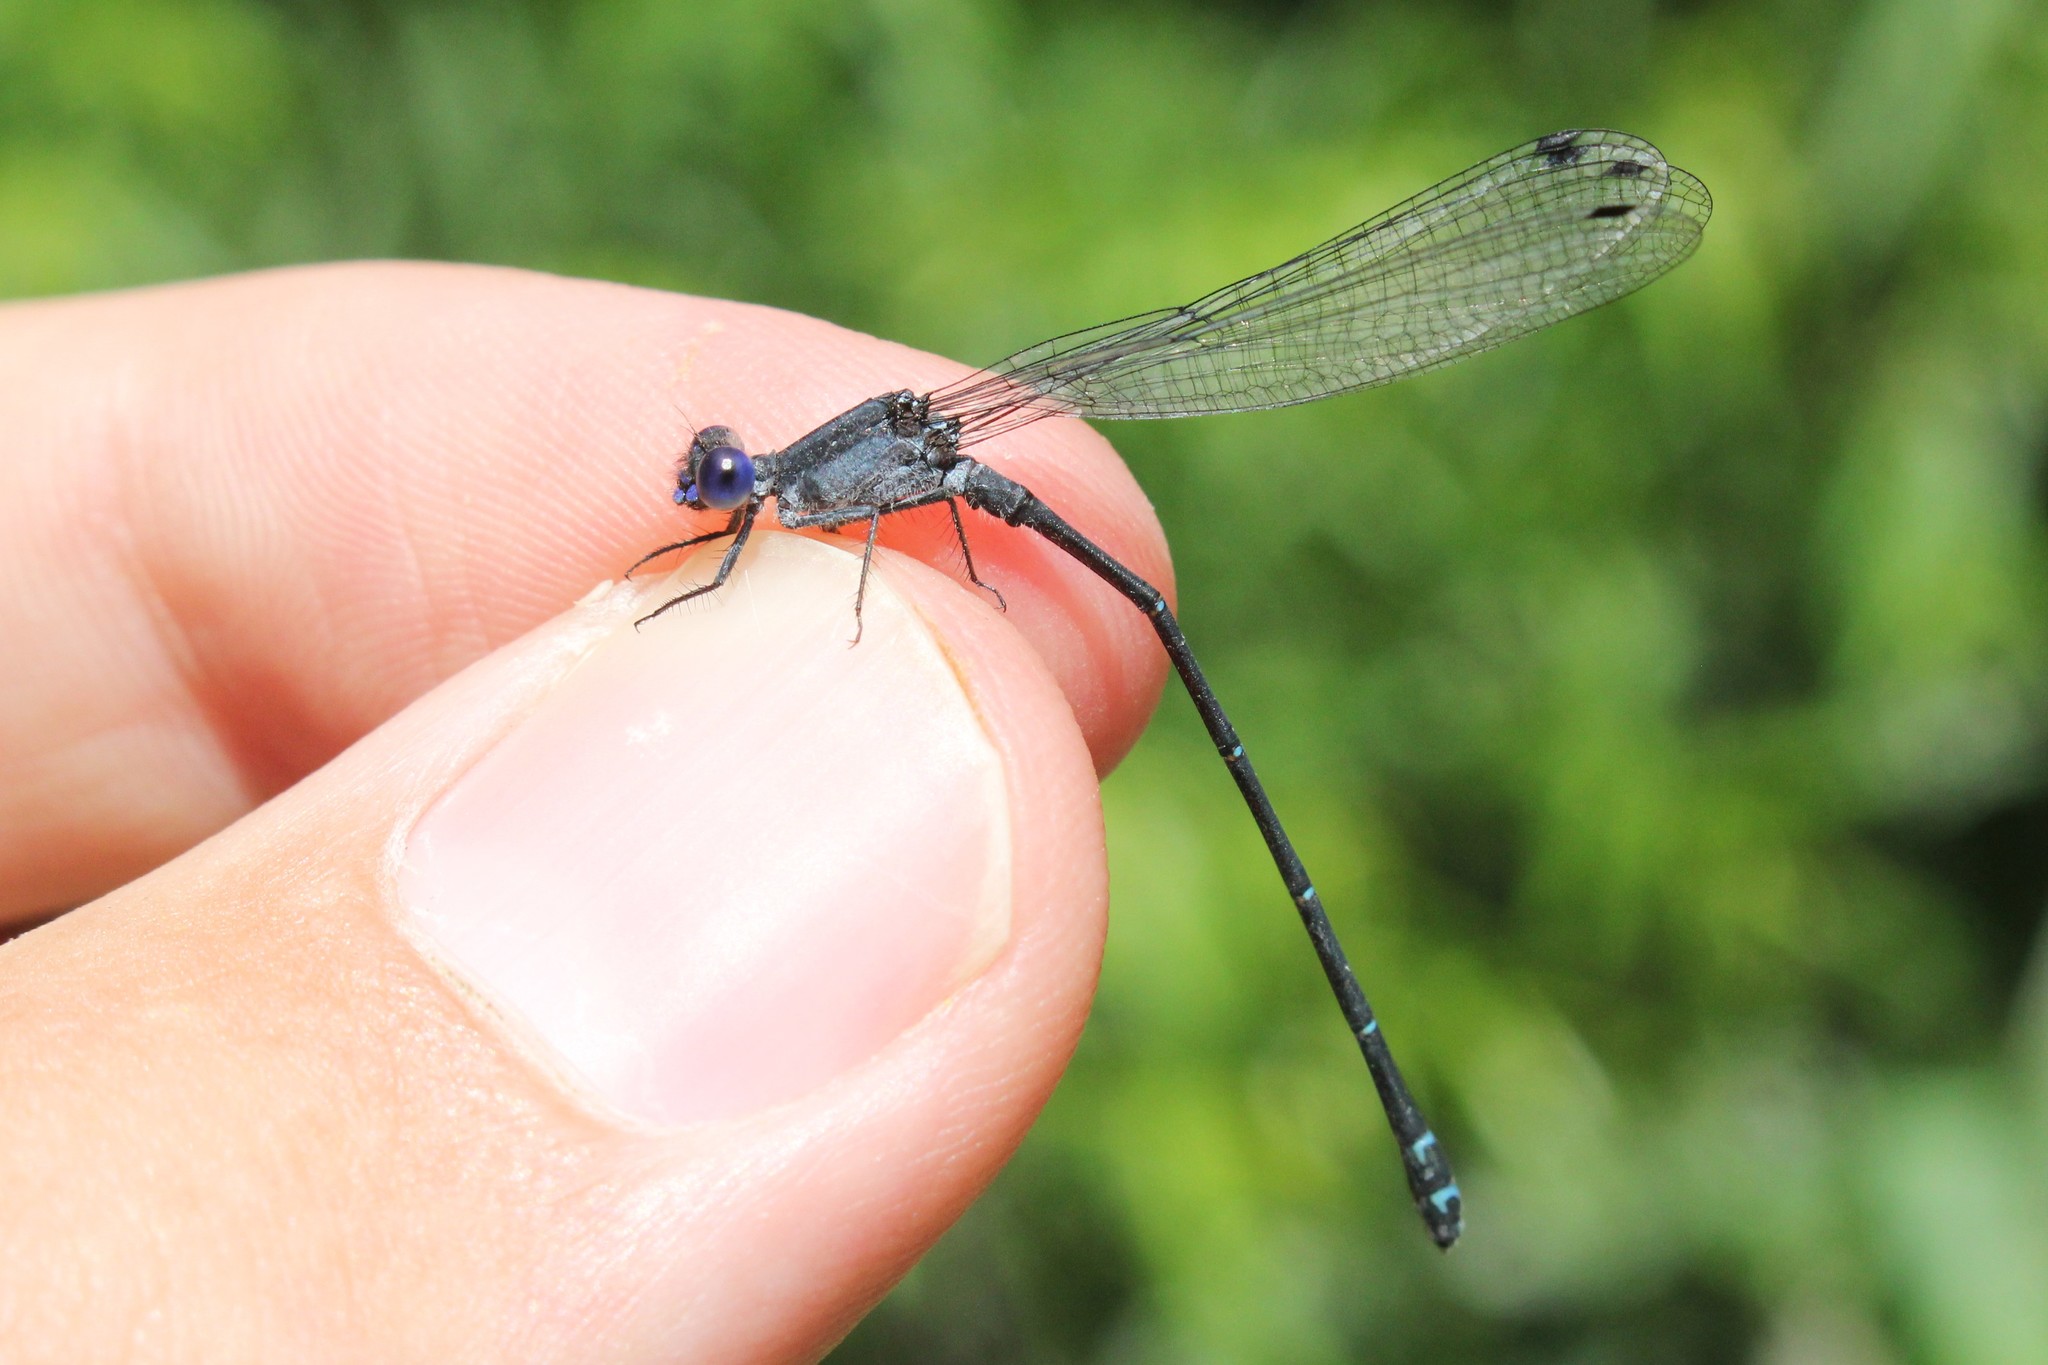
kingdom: Animalia
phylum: Arthropoda
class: Insecta
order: Odonata
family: Coenagrionidae
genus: Argia
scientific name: Argia translata
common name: Dusky dancer
